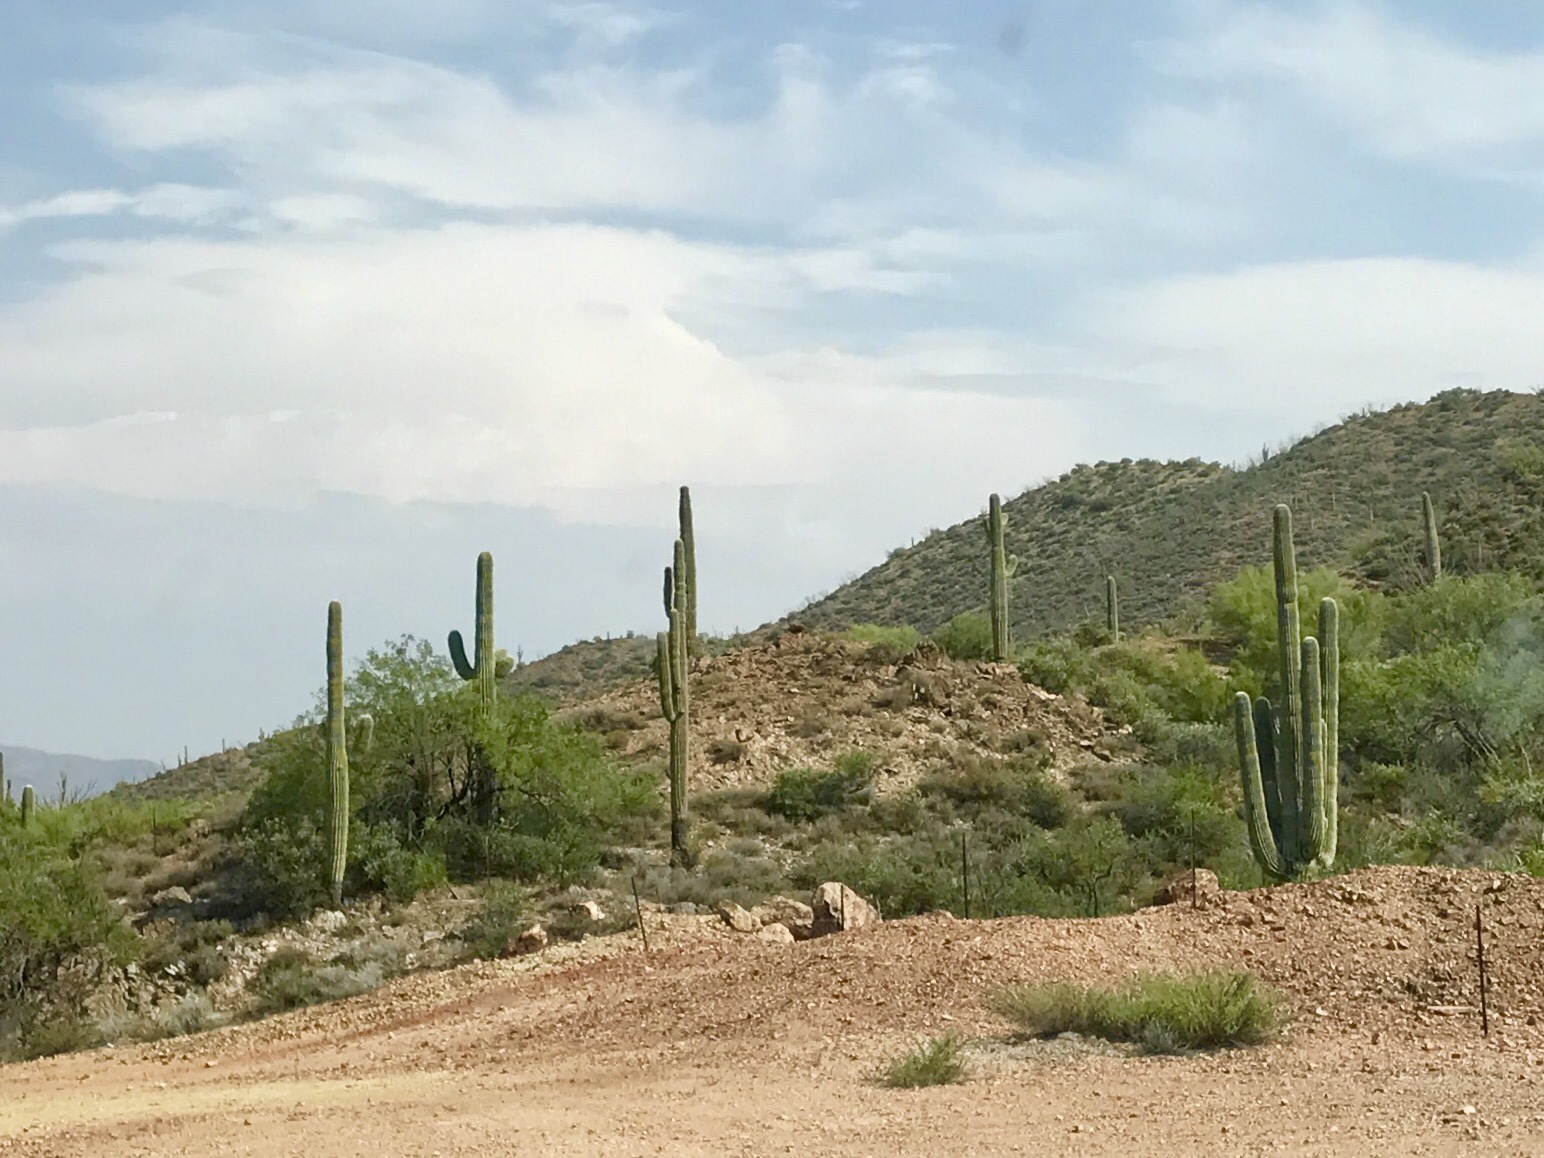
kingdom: Plantae
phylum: Tracheophyta
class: Magnoliopsida
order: Caryophyllales
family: Cactaceae
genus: Carnegiea
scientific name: Carnegiea gigantea
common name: Saguaro
